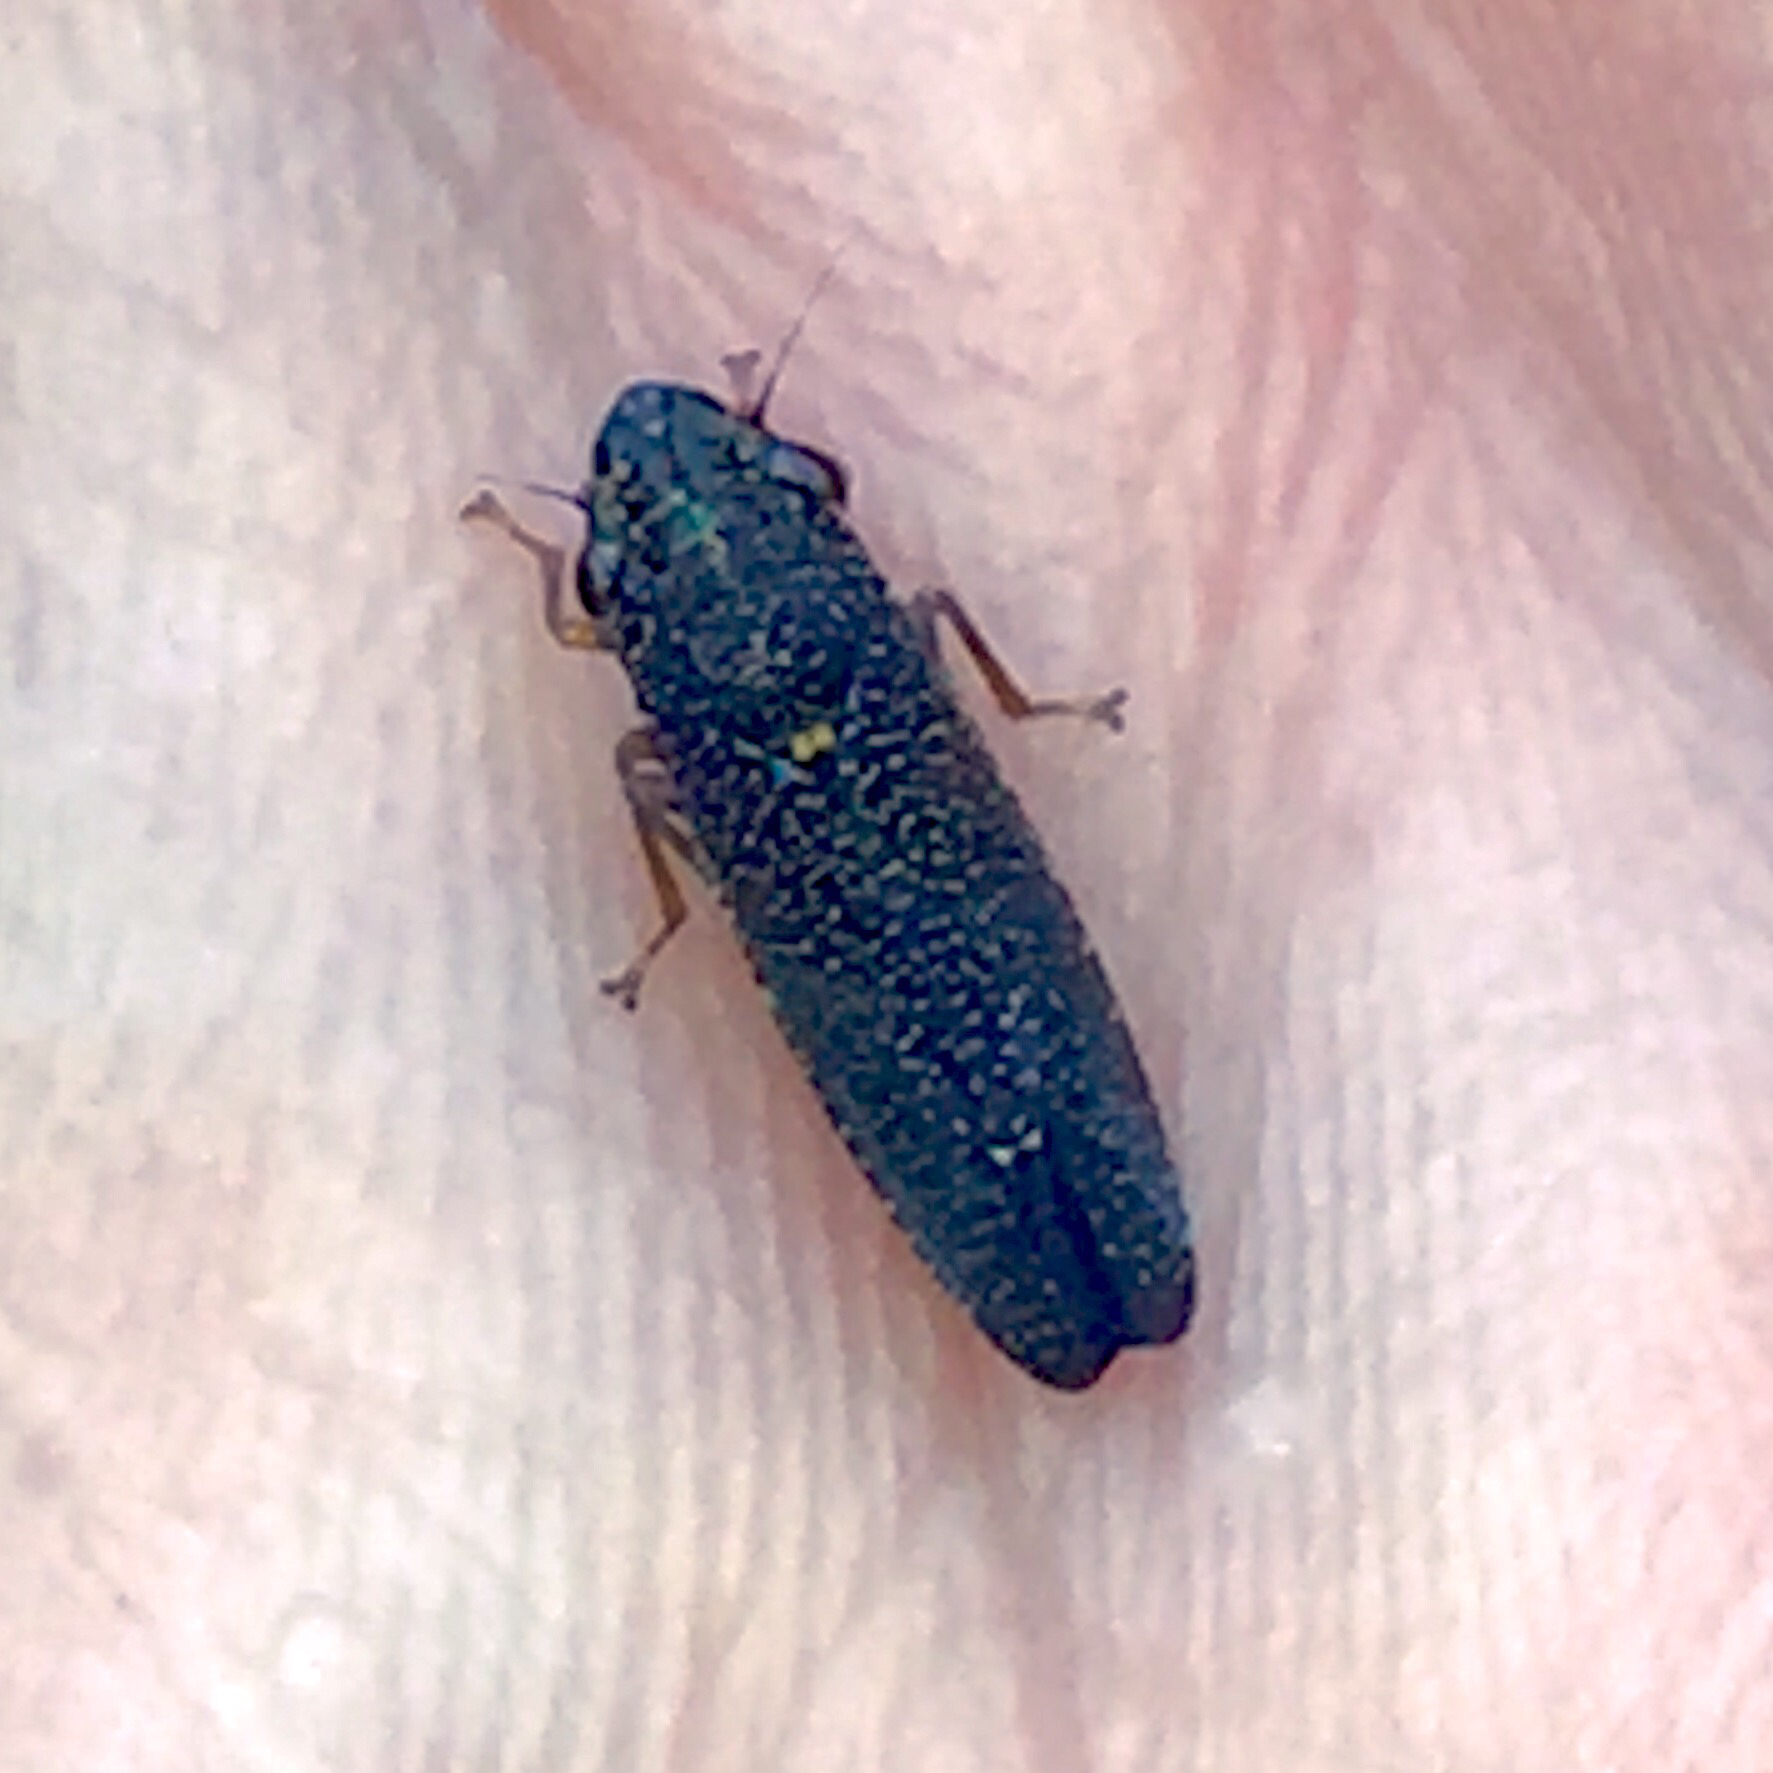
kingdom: Animalia
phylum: Arthropoda
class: Insecta
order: Hemiptera
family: Cicadellidae
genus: Paraulacizes
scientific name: Paraulacizes irrorata
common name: Speckled sharpshooter
